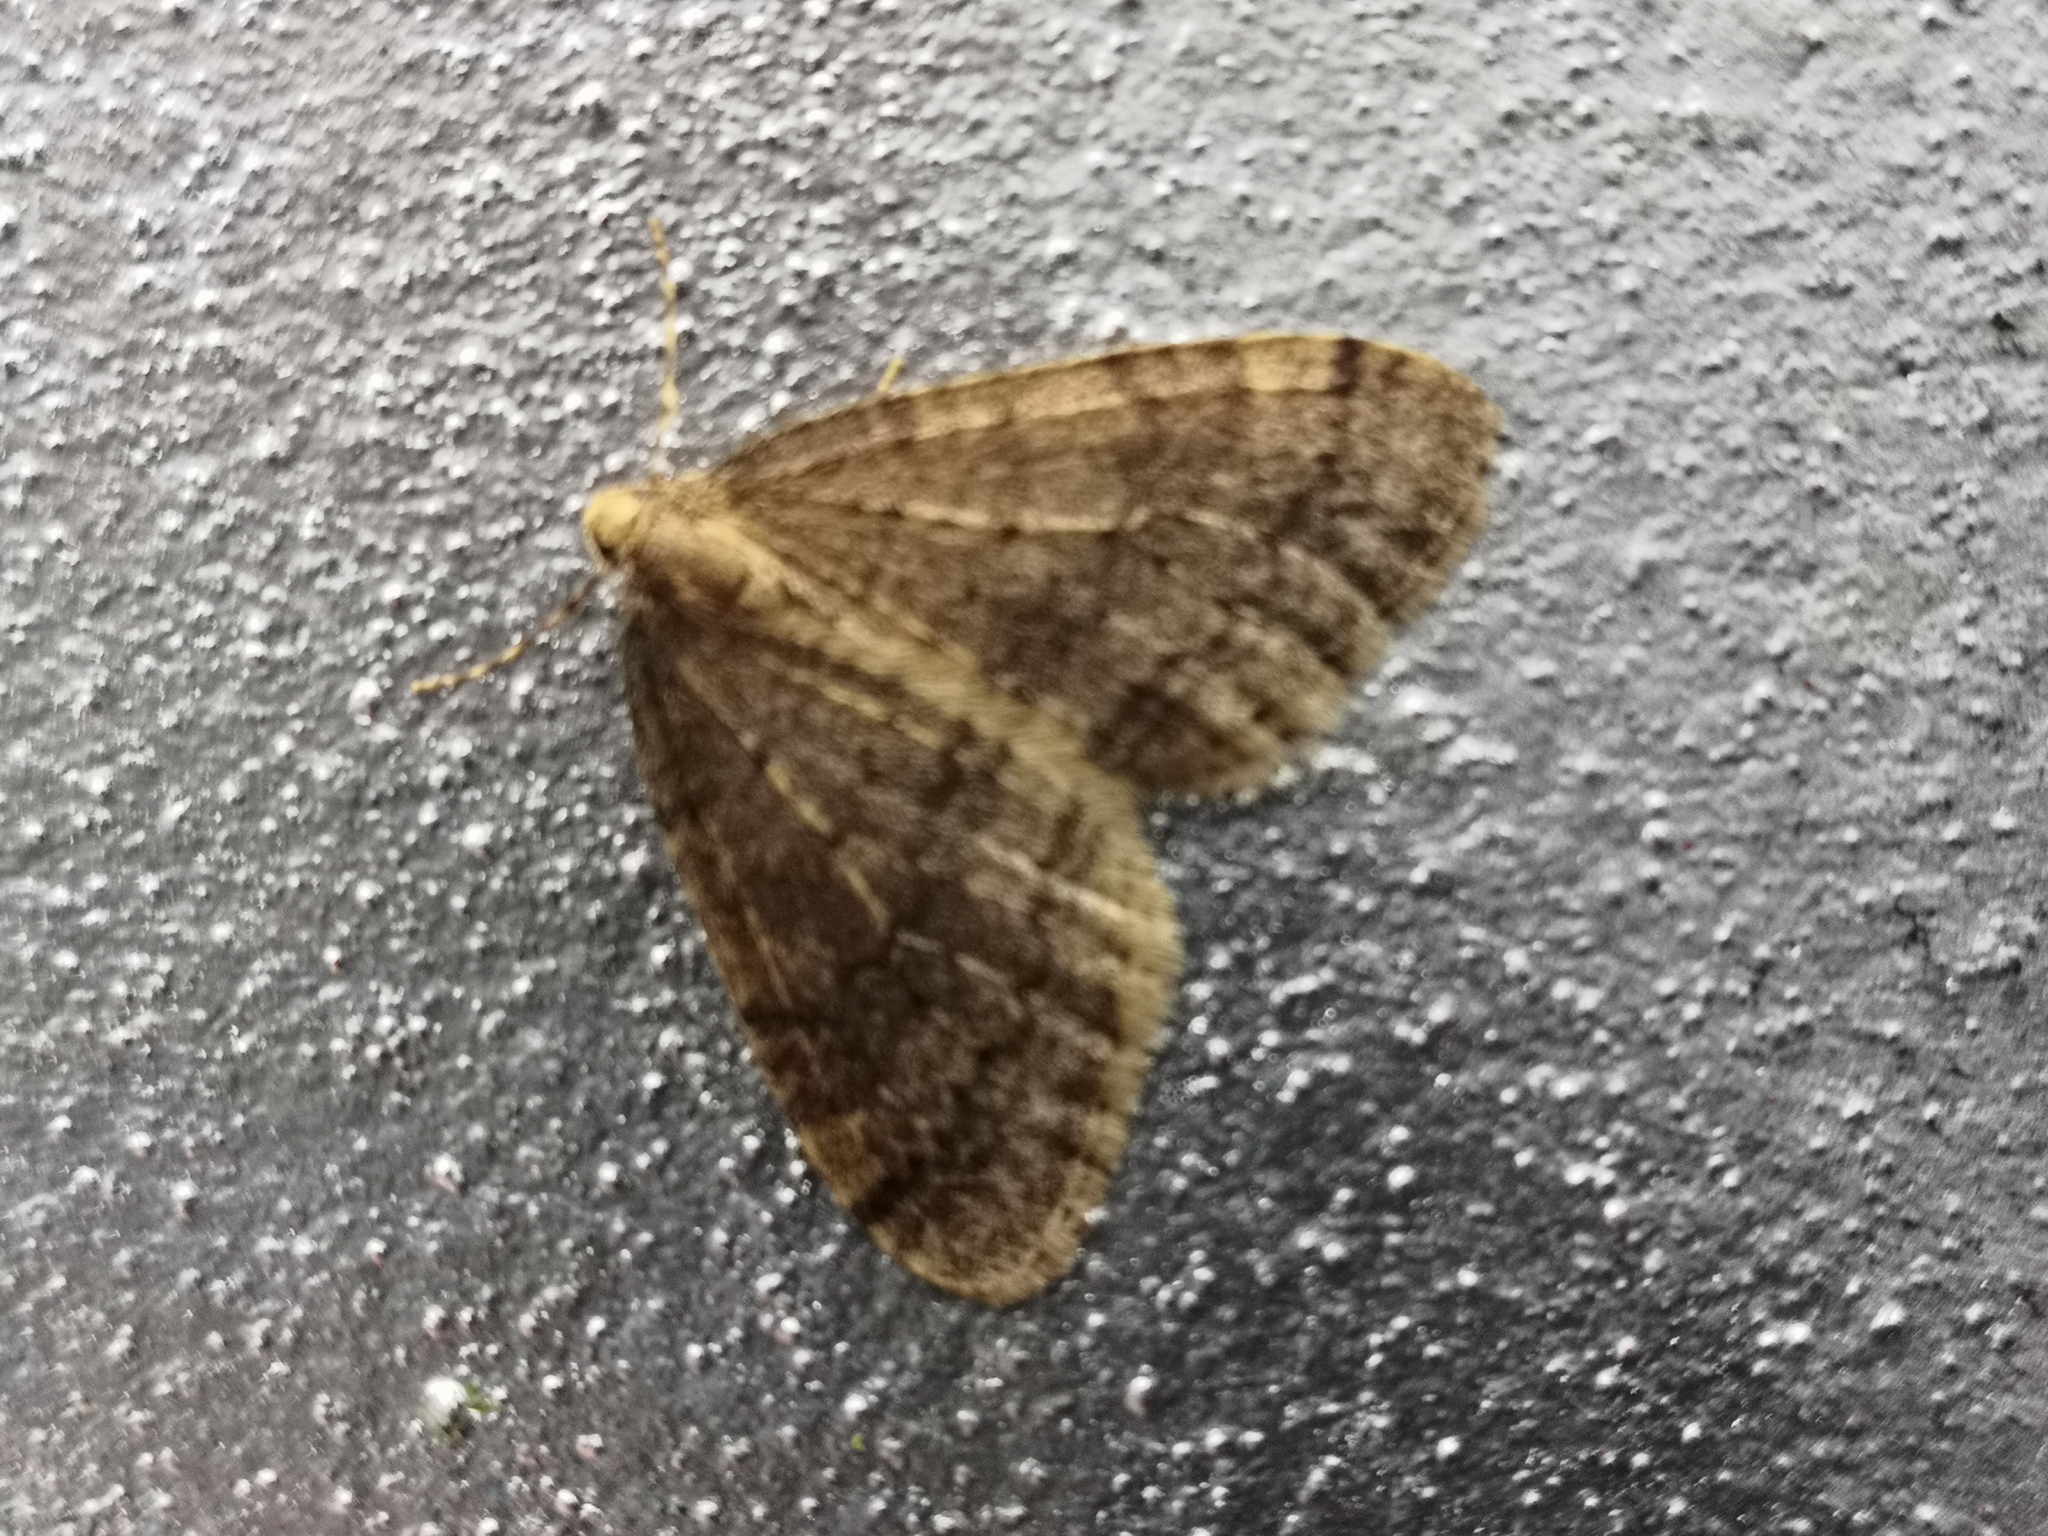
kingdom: Animalia
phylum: Arthropoda
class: Insecta
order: Lepidoptera
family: Geometridae
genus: Operophtera
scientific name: Operophtera brumata
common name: Winter moth
